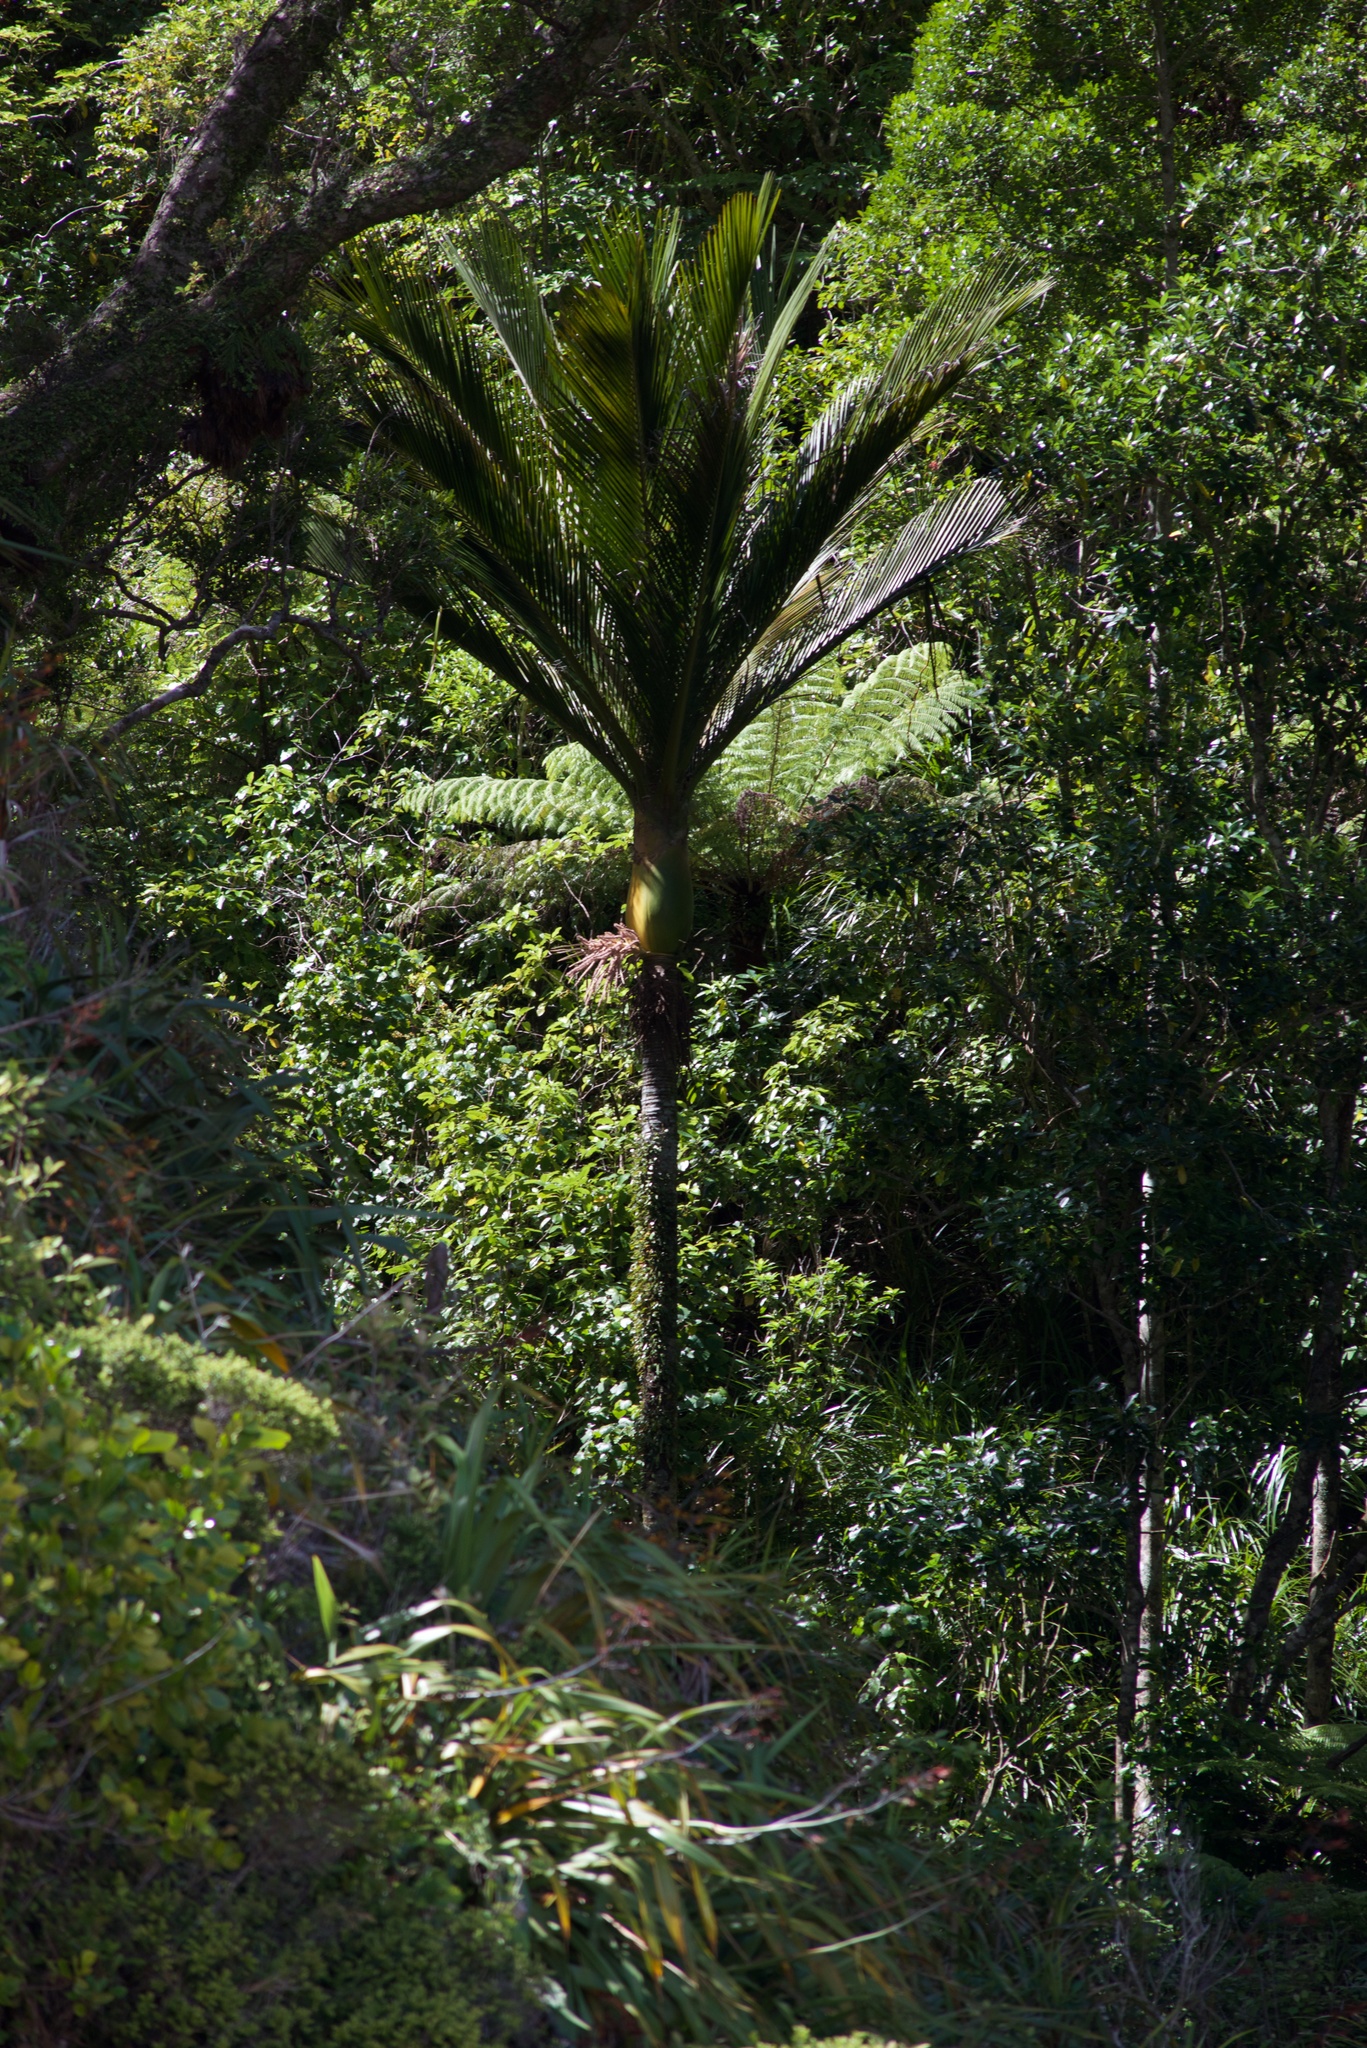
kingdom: Plantae
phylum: Tracheophyta
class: Liliopsida
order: Arecales
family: Arecaceae
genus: Rhopalostylis
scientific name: Rhopalostylis sapida
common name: Feather-duster palm
